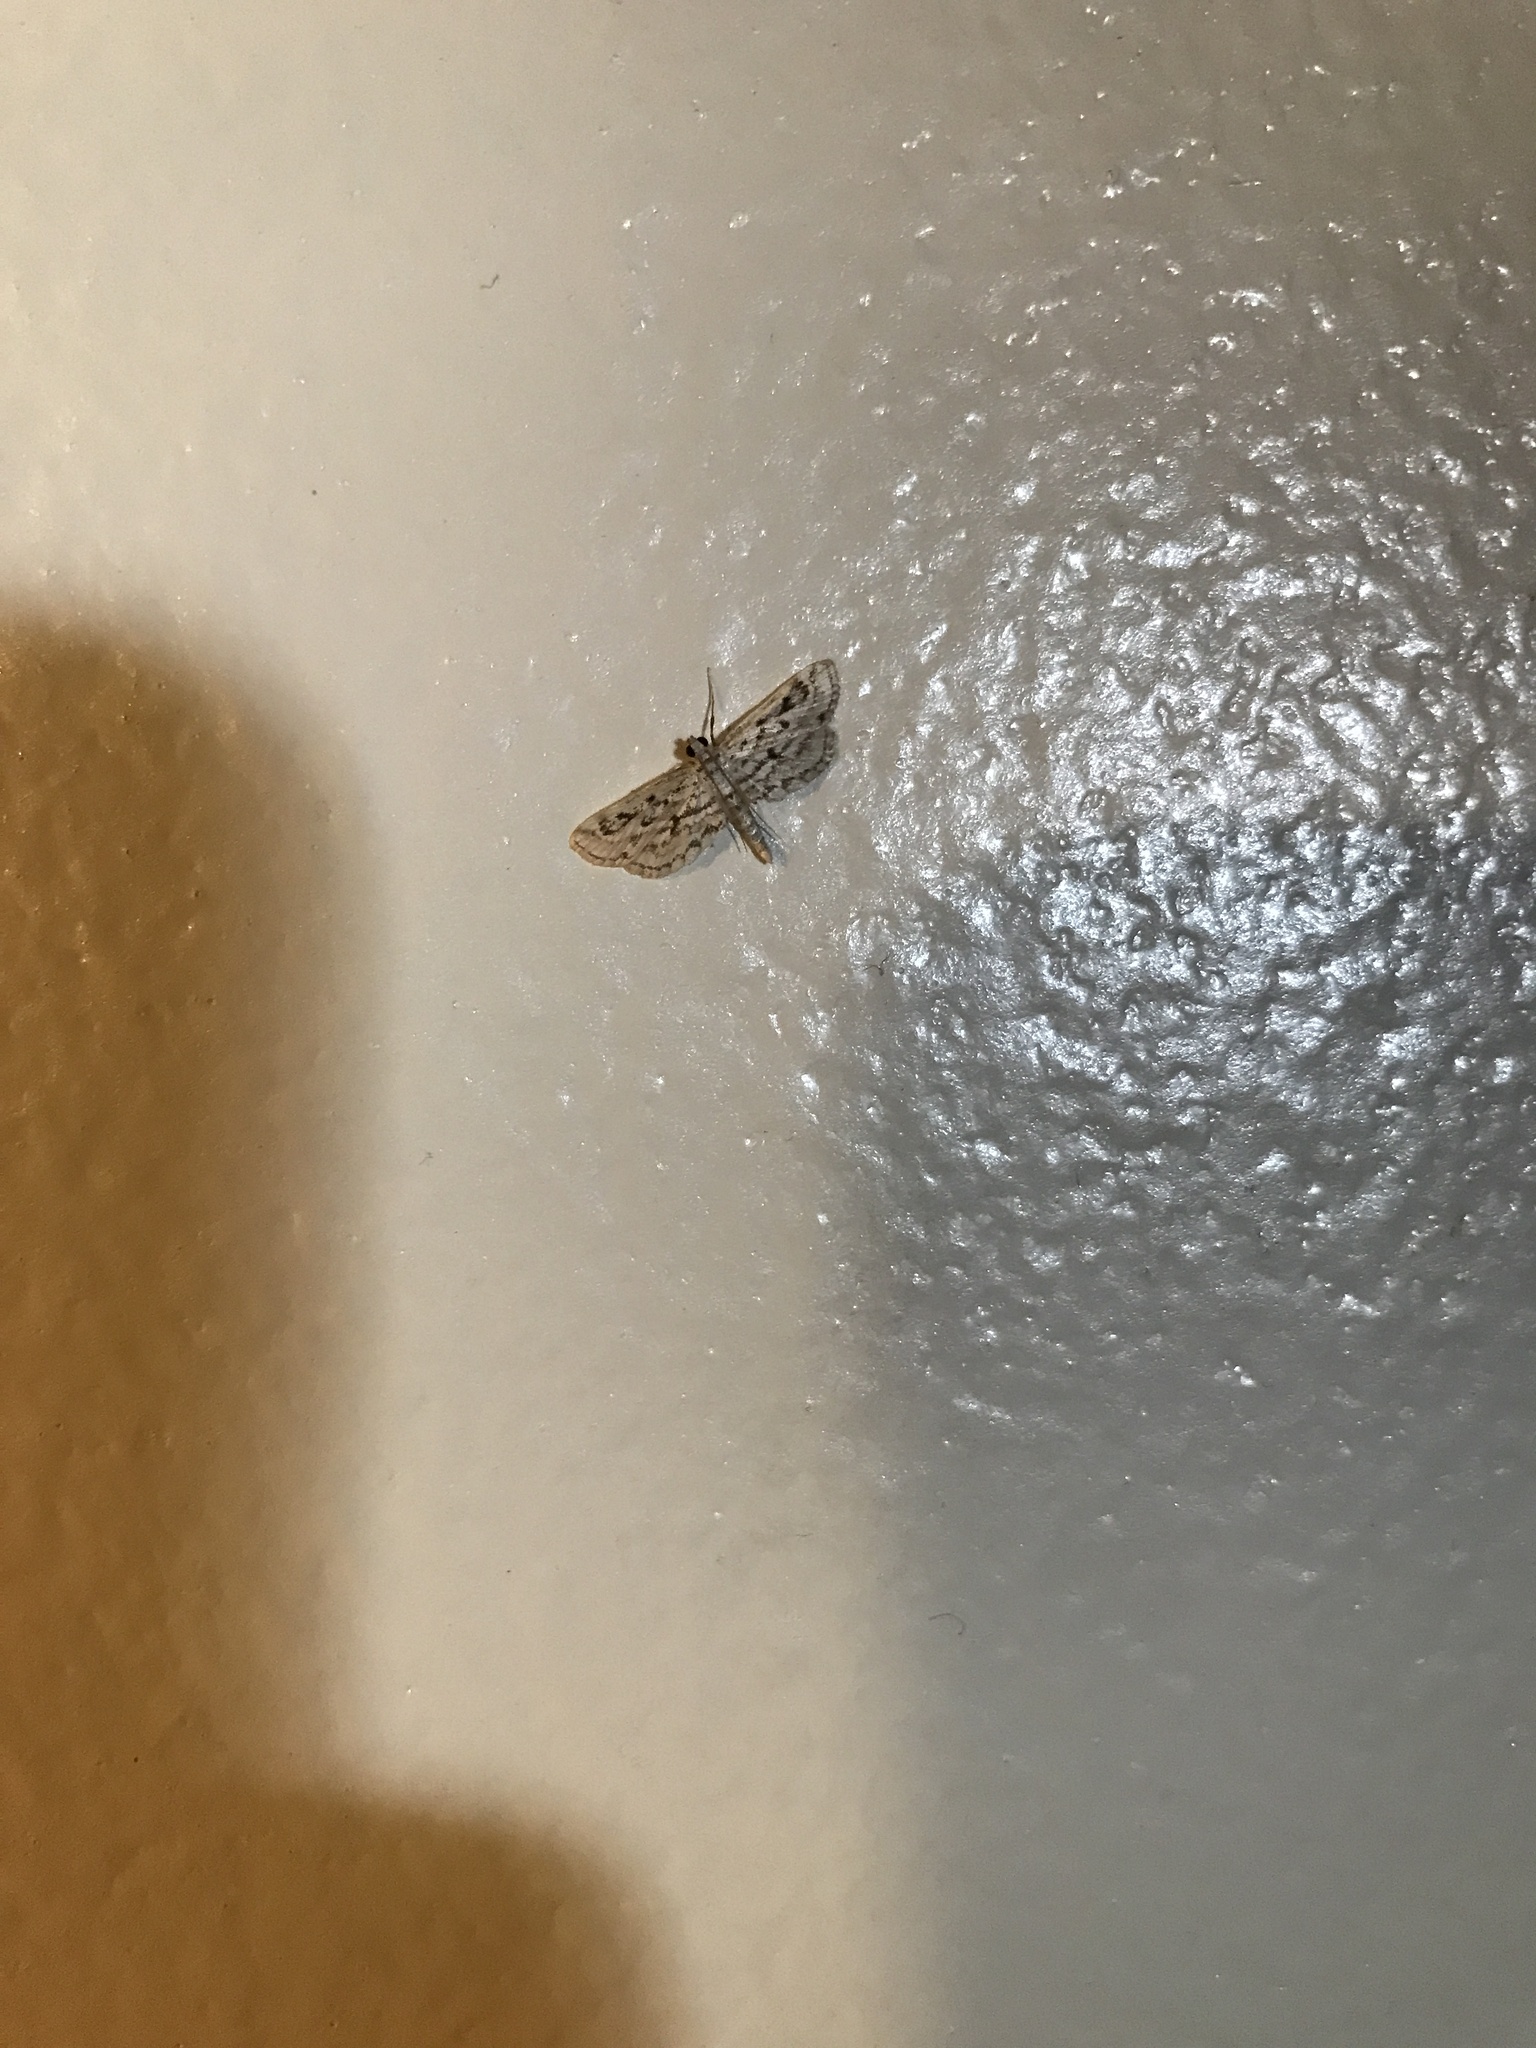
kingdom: Animalia
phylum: Arthropoda
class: Insecta
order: Lepidoptera
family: Crambidae
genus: Parapoynx
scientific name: Parapoynx allionealis
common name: Bladderwort casemaker
